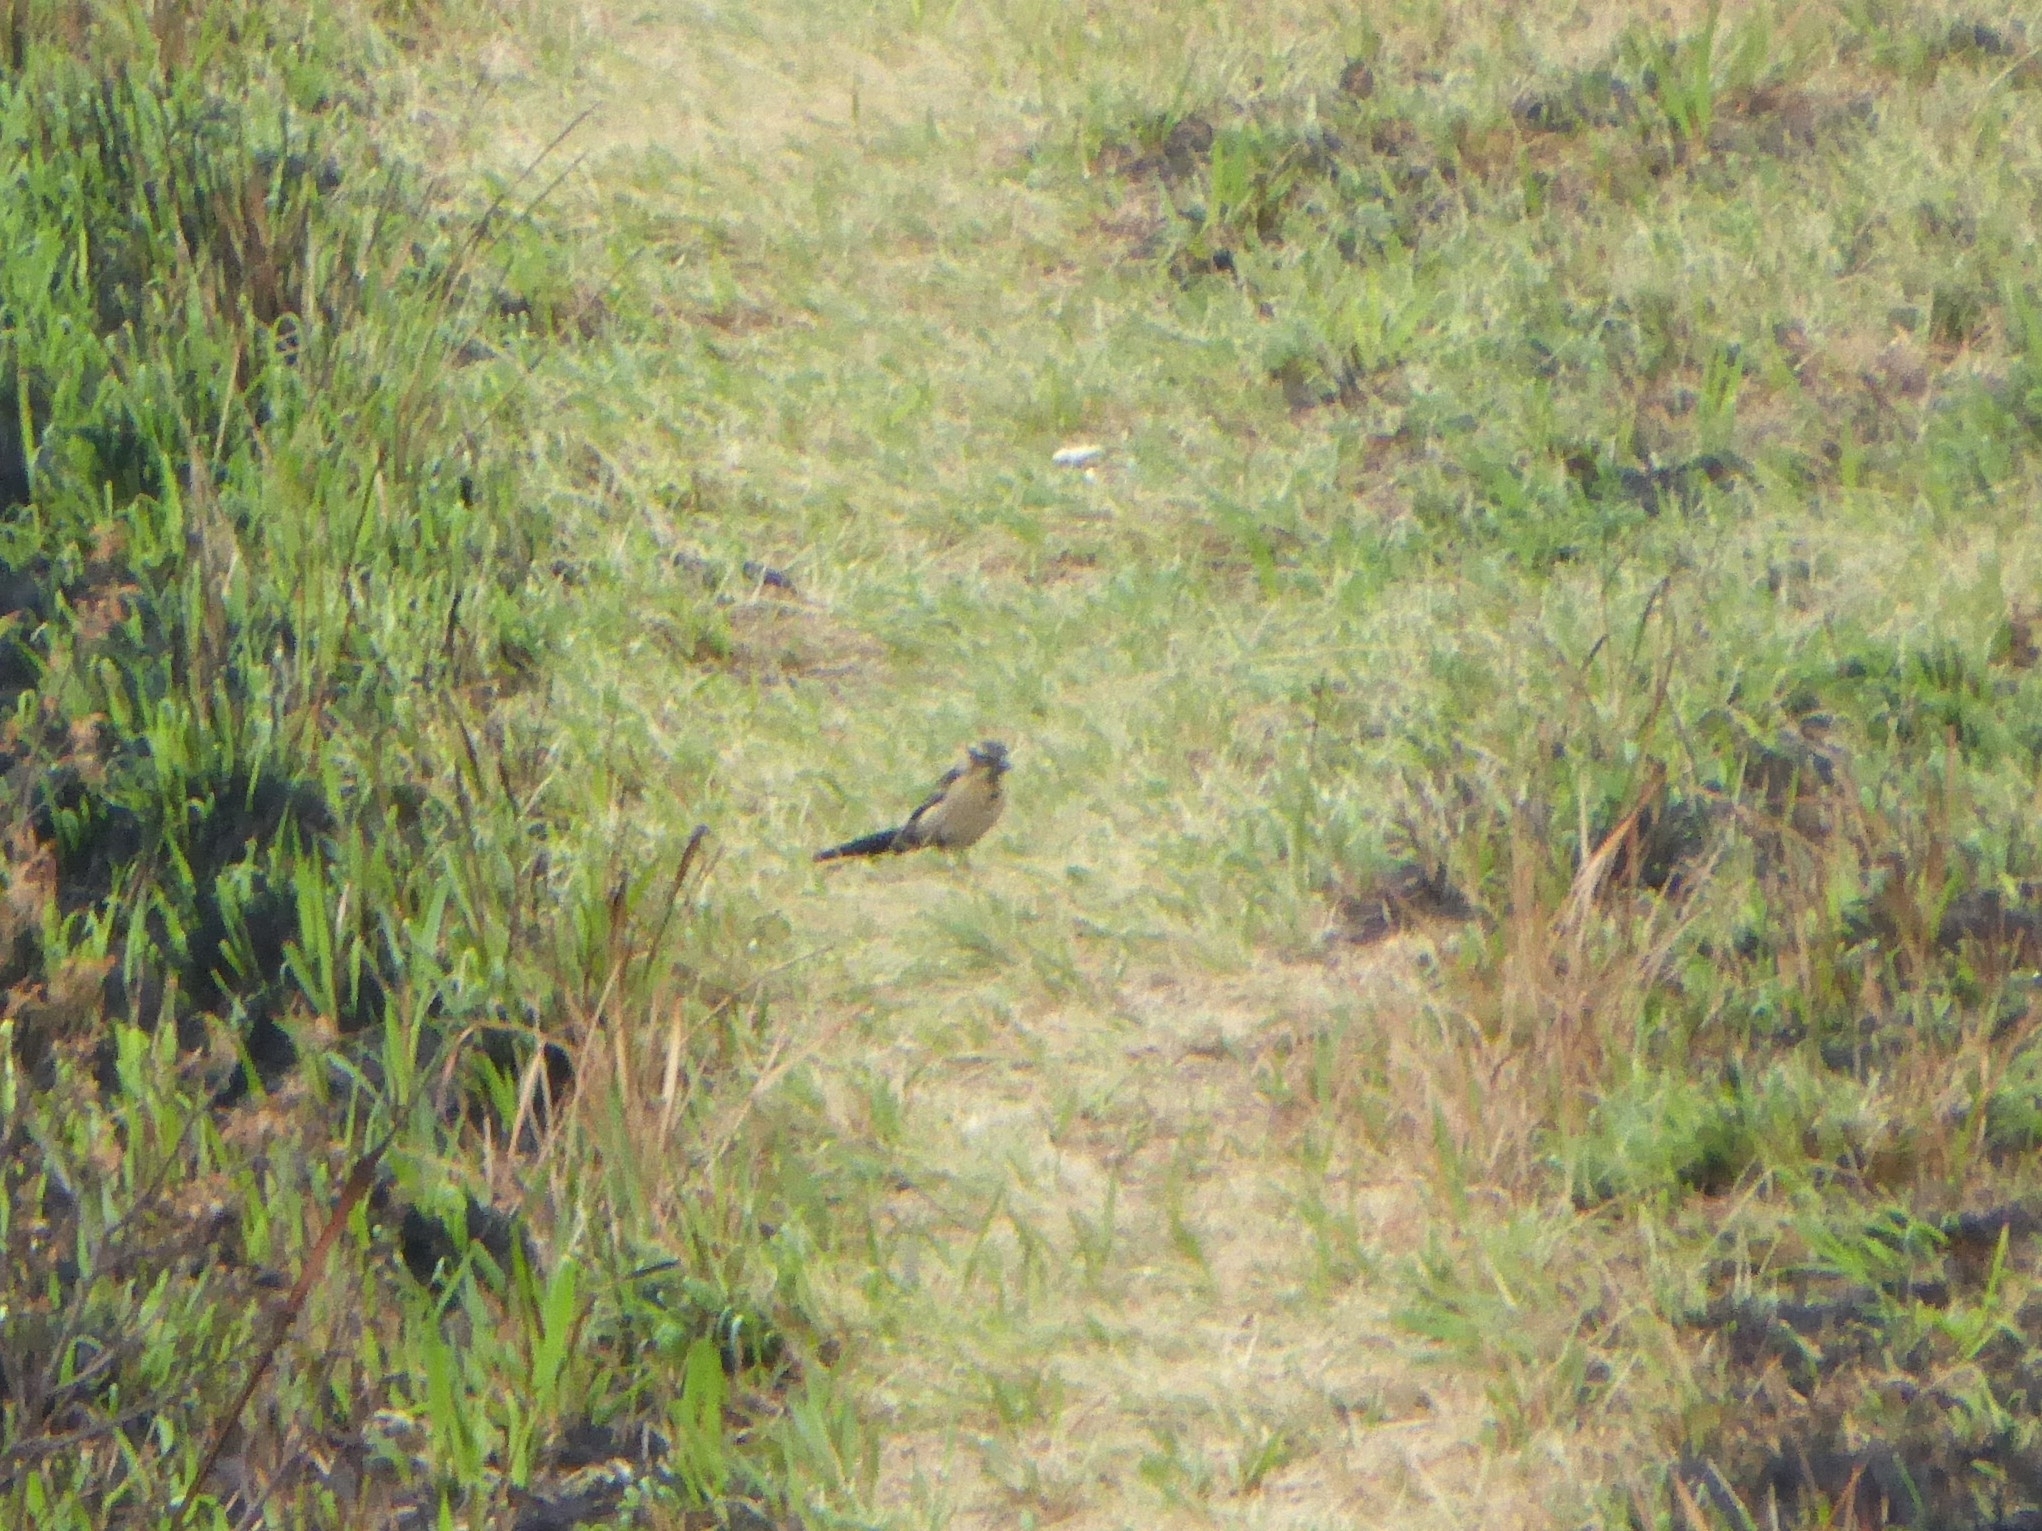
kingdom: Animalia
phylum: Chordata
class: Aves
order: Passeriformes
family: Ploceidae
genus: Euplectes
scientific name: Euplectes progne
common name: Long-tailed widowbird
